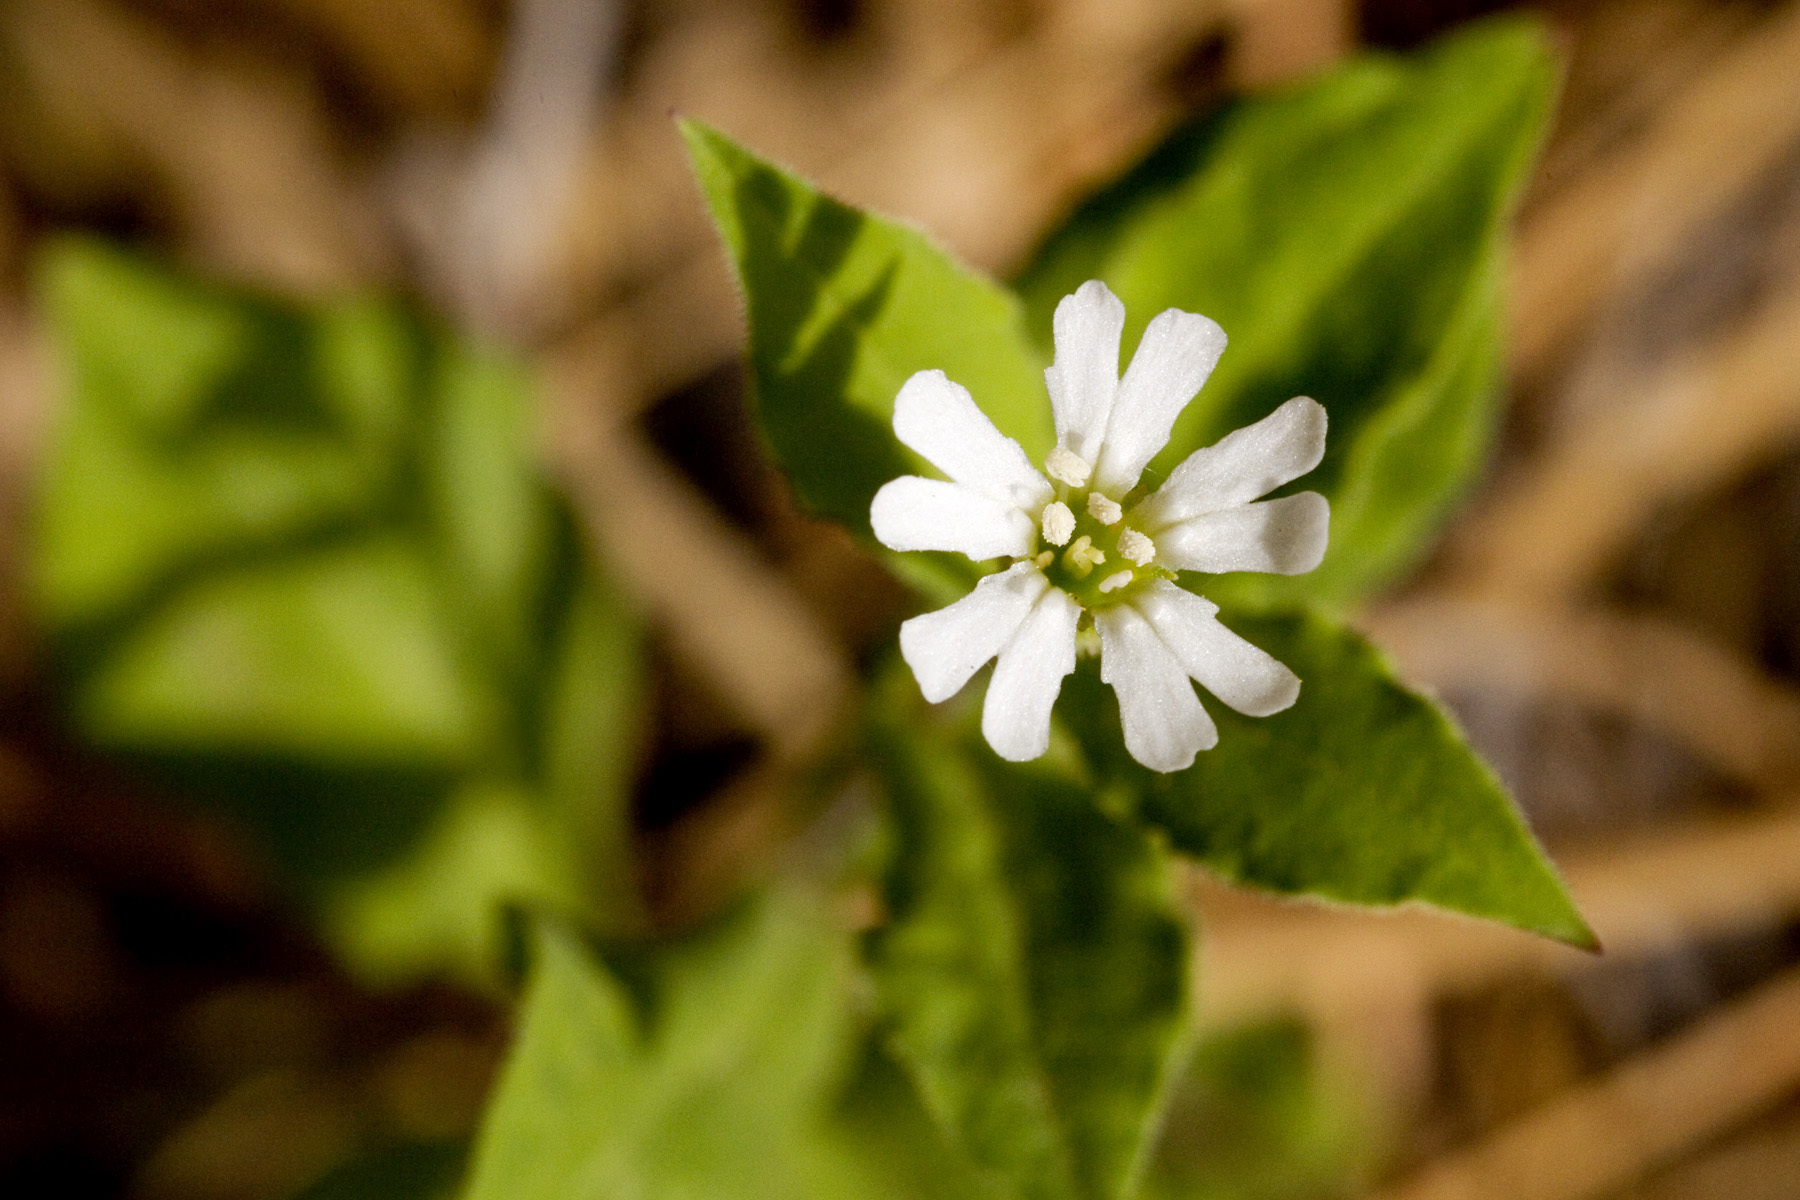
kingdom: Plantae
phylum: Tracheophyta
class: Magnoliopsida
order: Caryophyllales
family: Caryophyllaceae
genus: Silene
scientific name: Silene menziesii
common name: Menzies's catchfly
